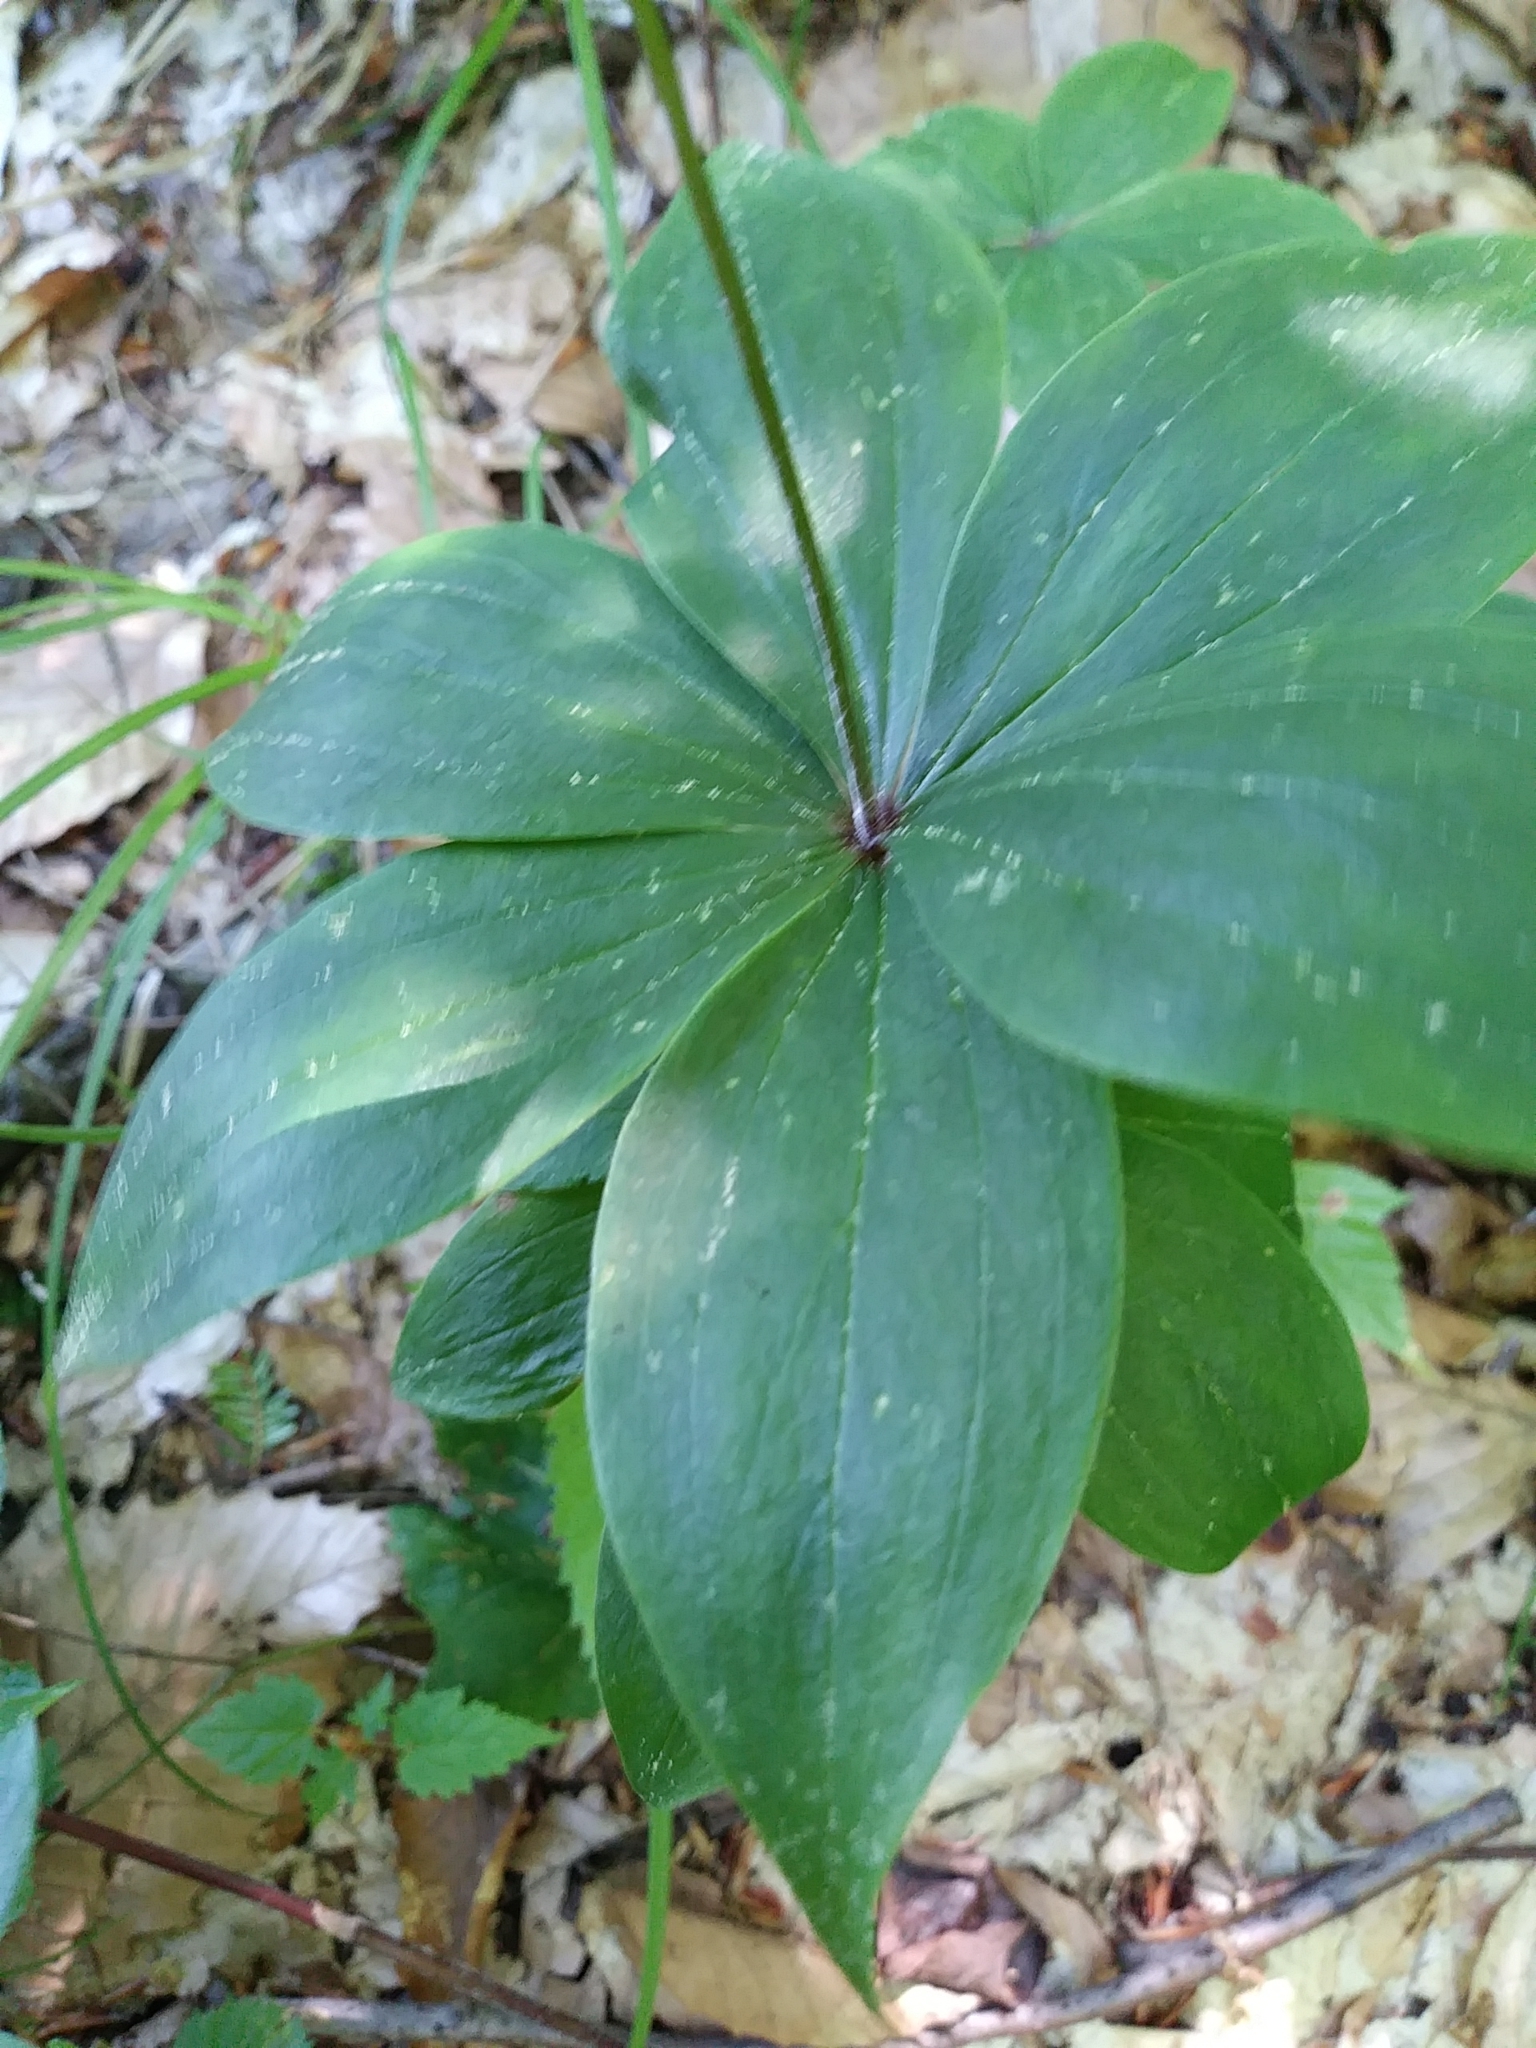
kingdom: Plantae
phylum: Tracheophyta
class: Liliopsida
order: Liliales
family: Liliaceae
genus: Medeola
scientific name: Medeola virginiana
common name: Indian cucumber-root
